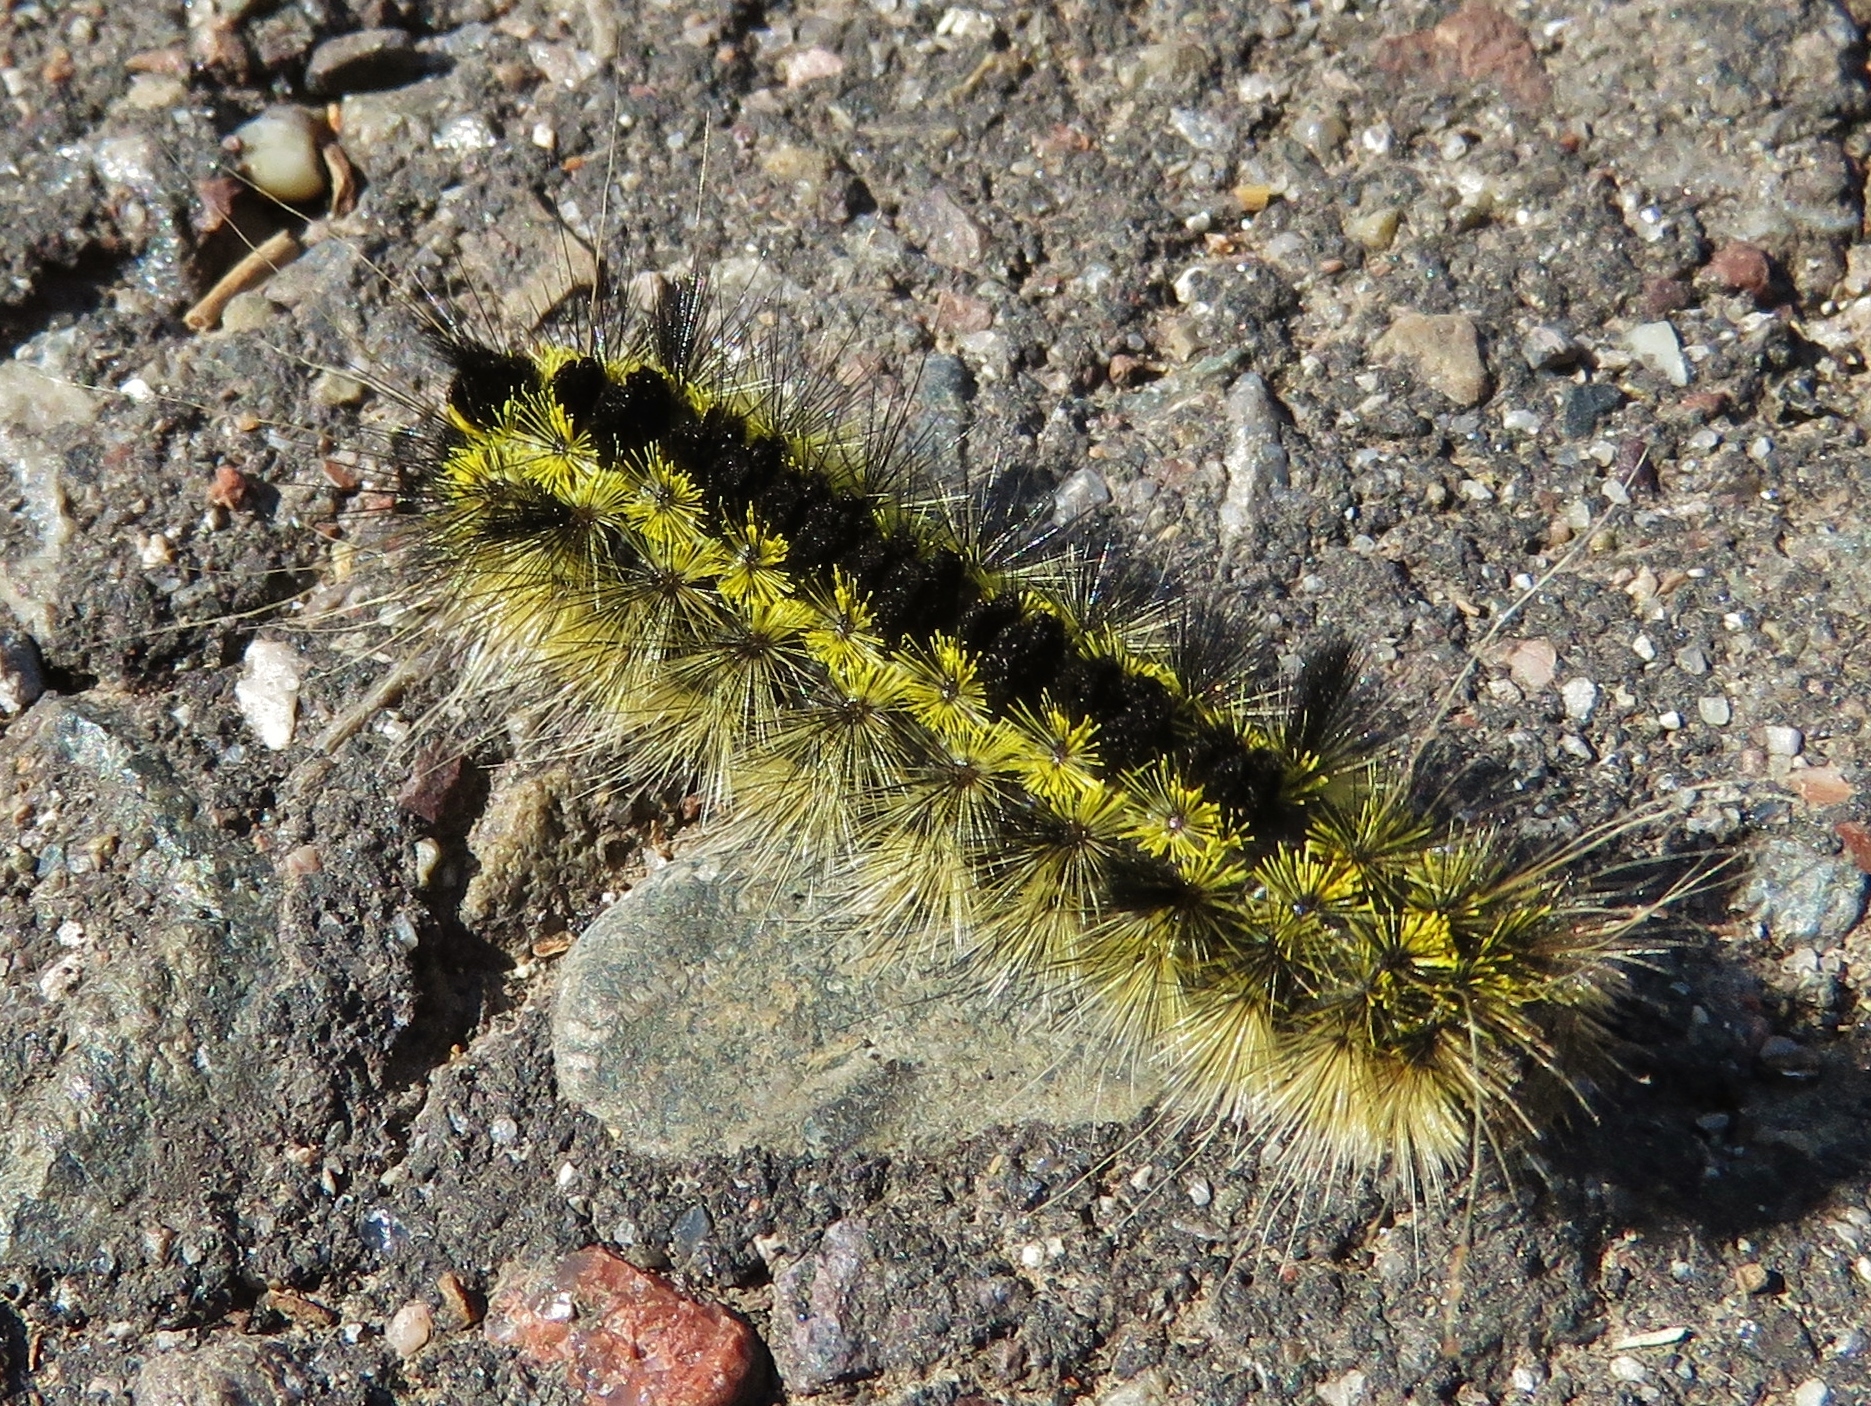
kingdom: Animalia
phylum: Arthropoda
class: Insecta
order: Lepidoptera
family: Erebidae
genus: Lophocampa
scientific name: Lophocampa argentata
